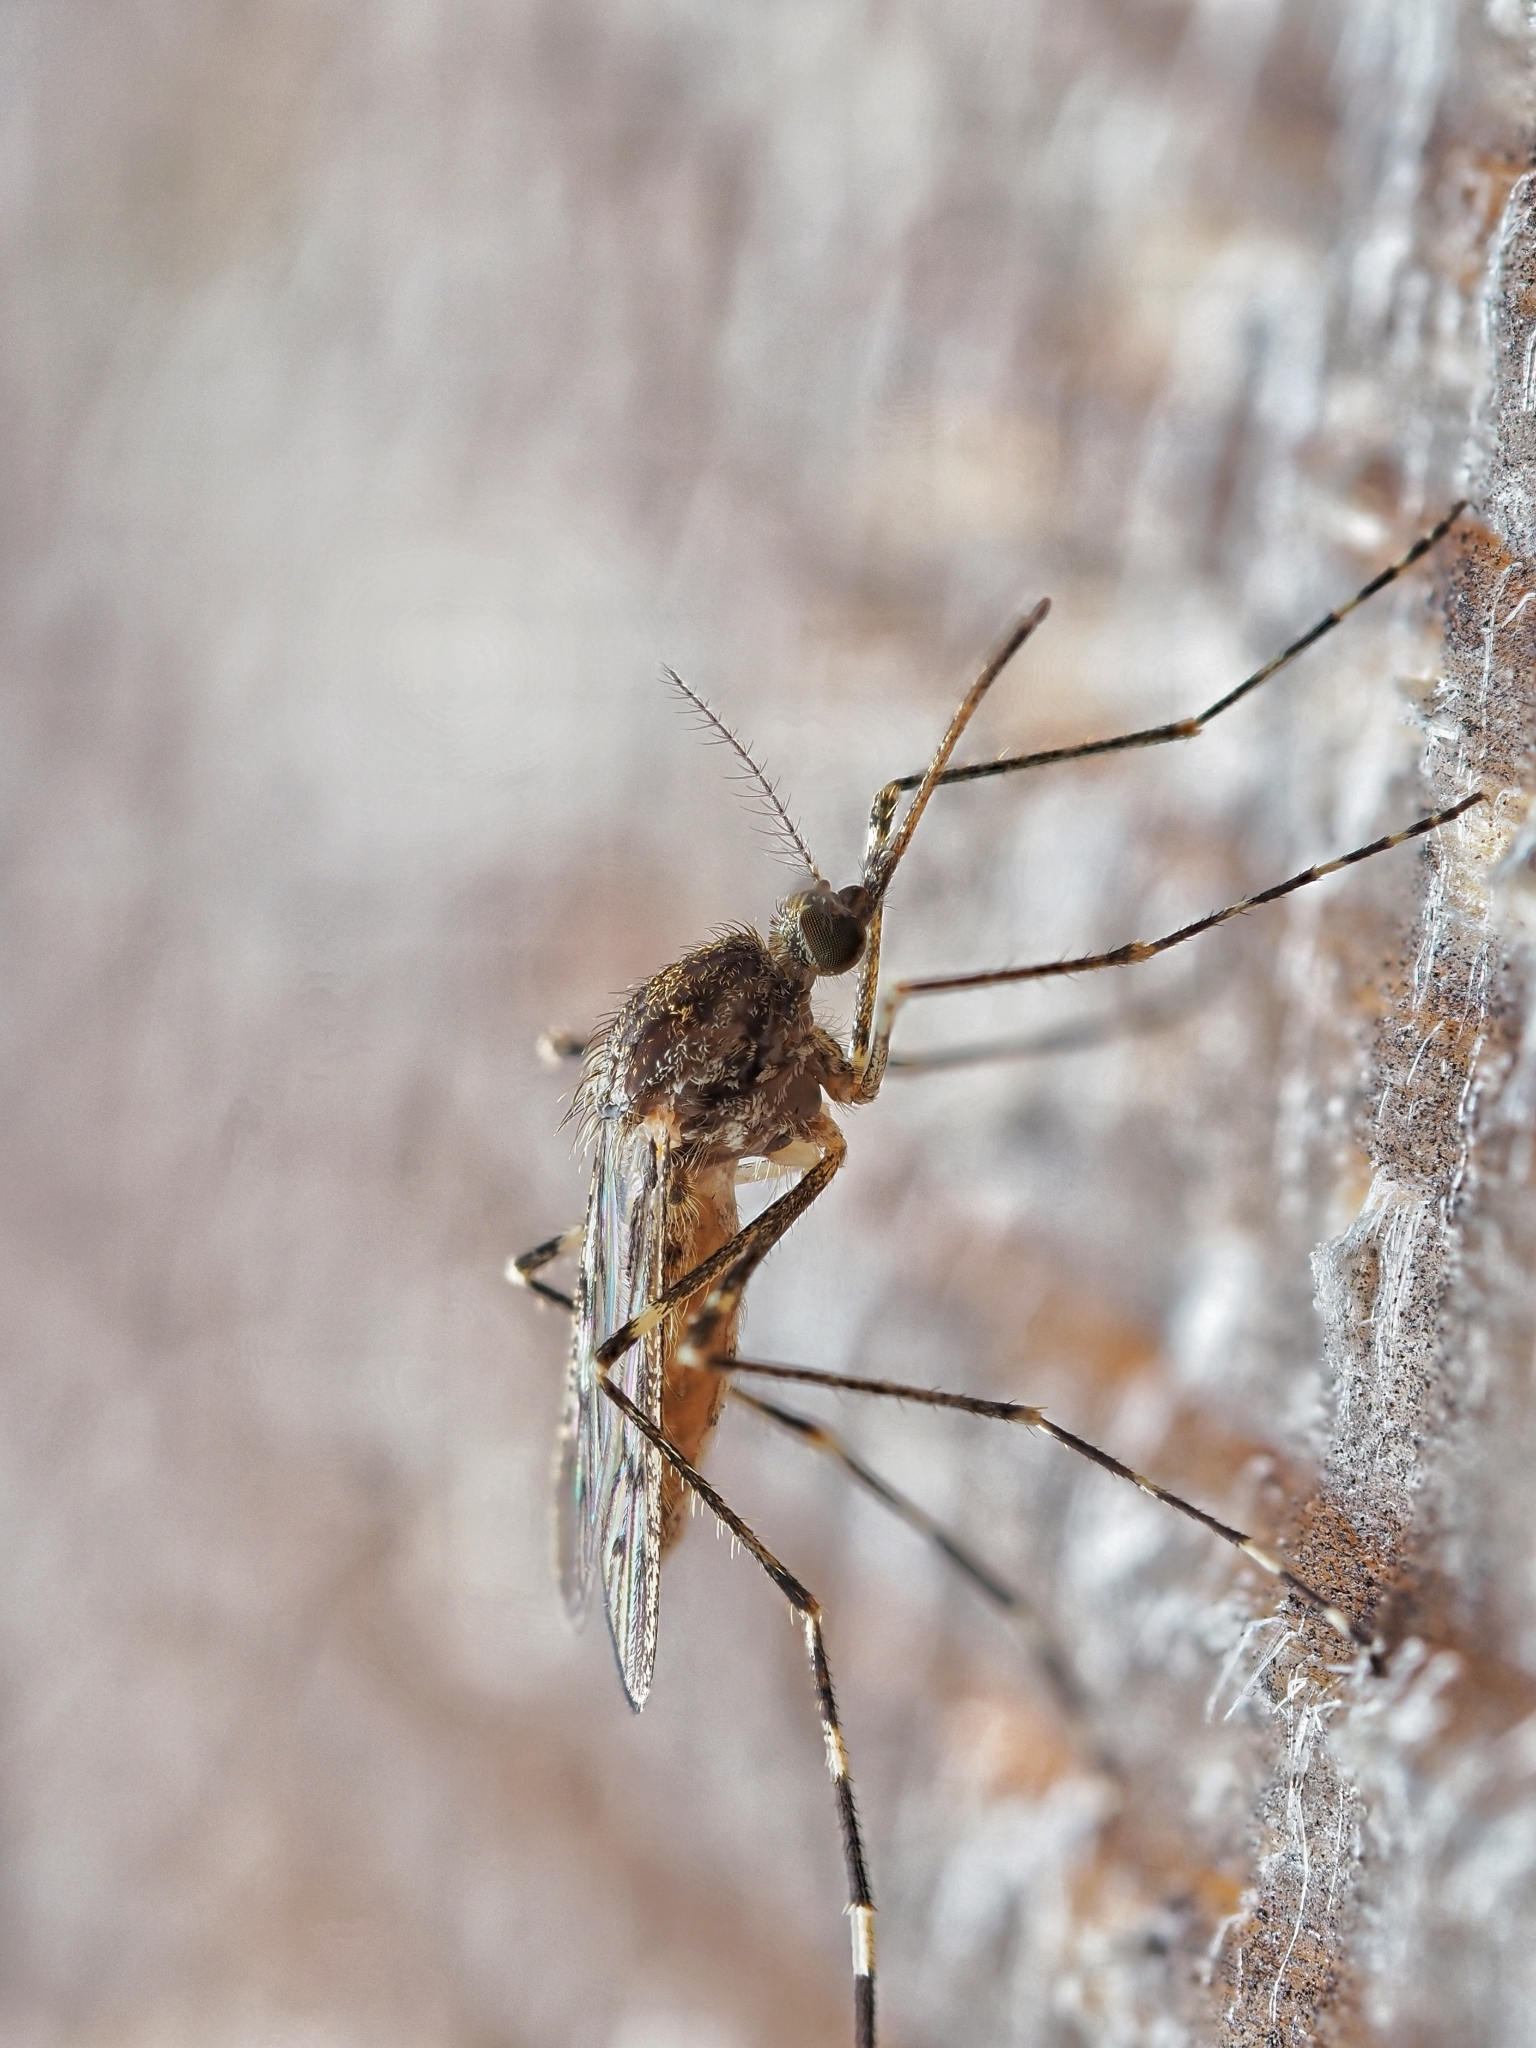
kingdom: Animalia
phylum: Arthropoda
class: Insecta
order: Diptera
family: Culicidae
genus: Culiseta
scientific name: Culiseta annulata
